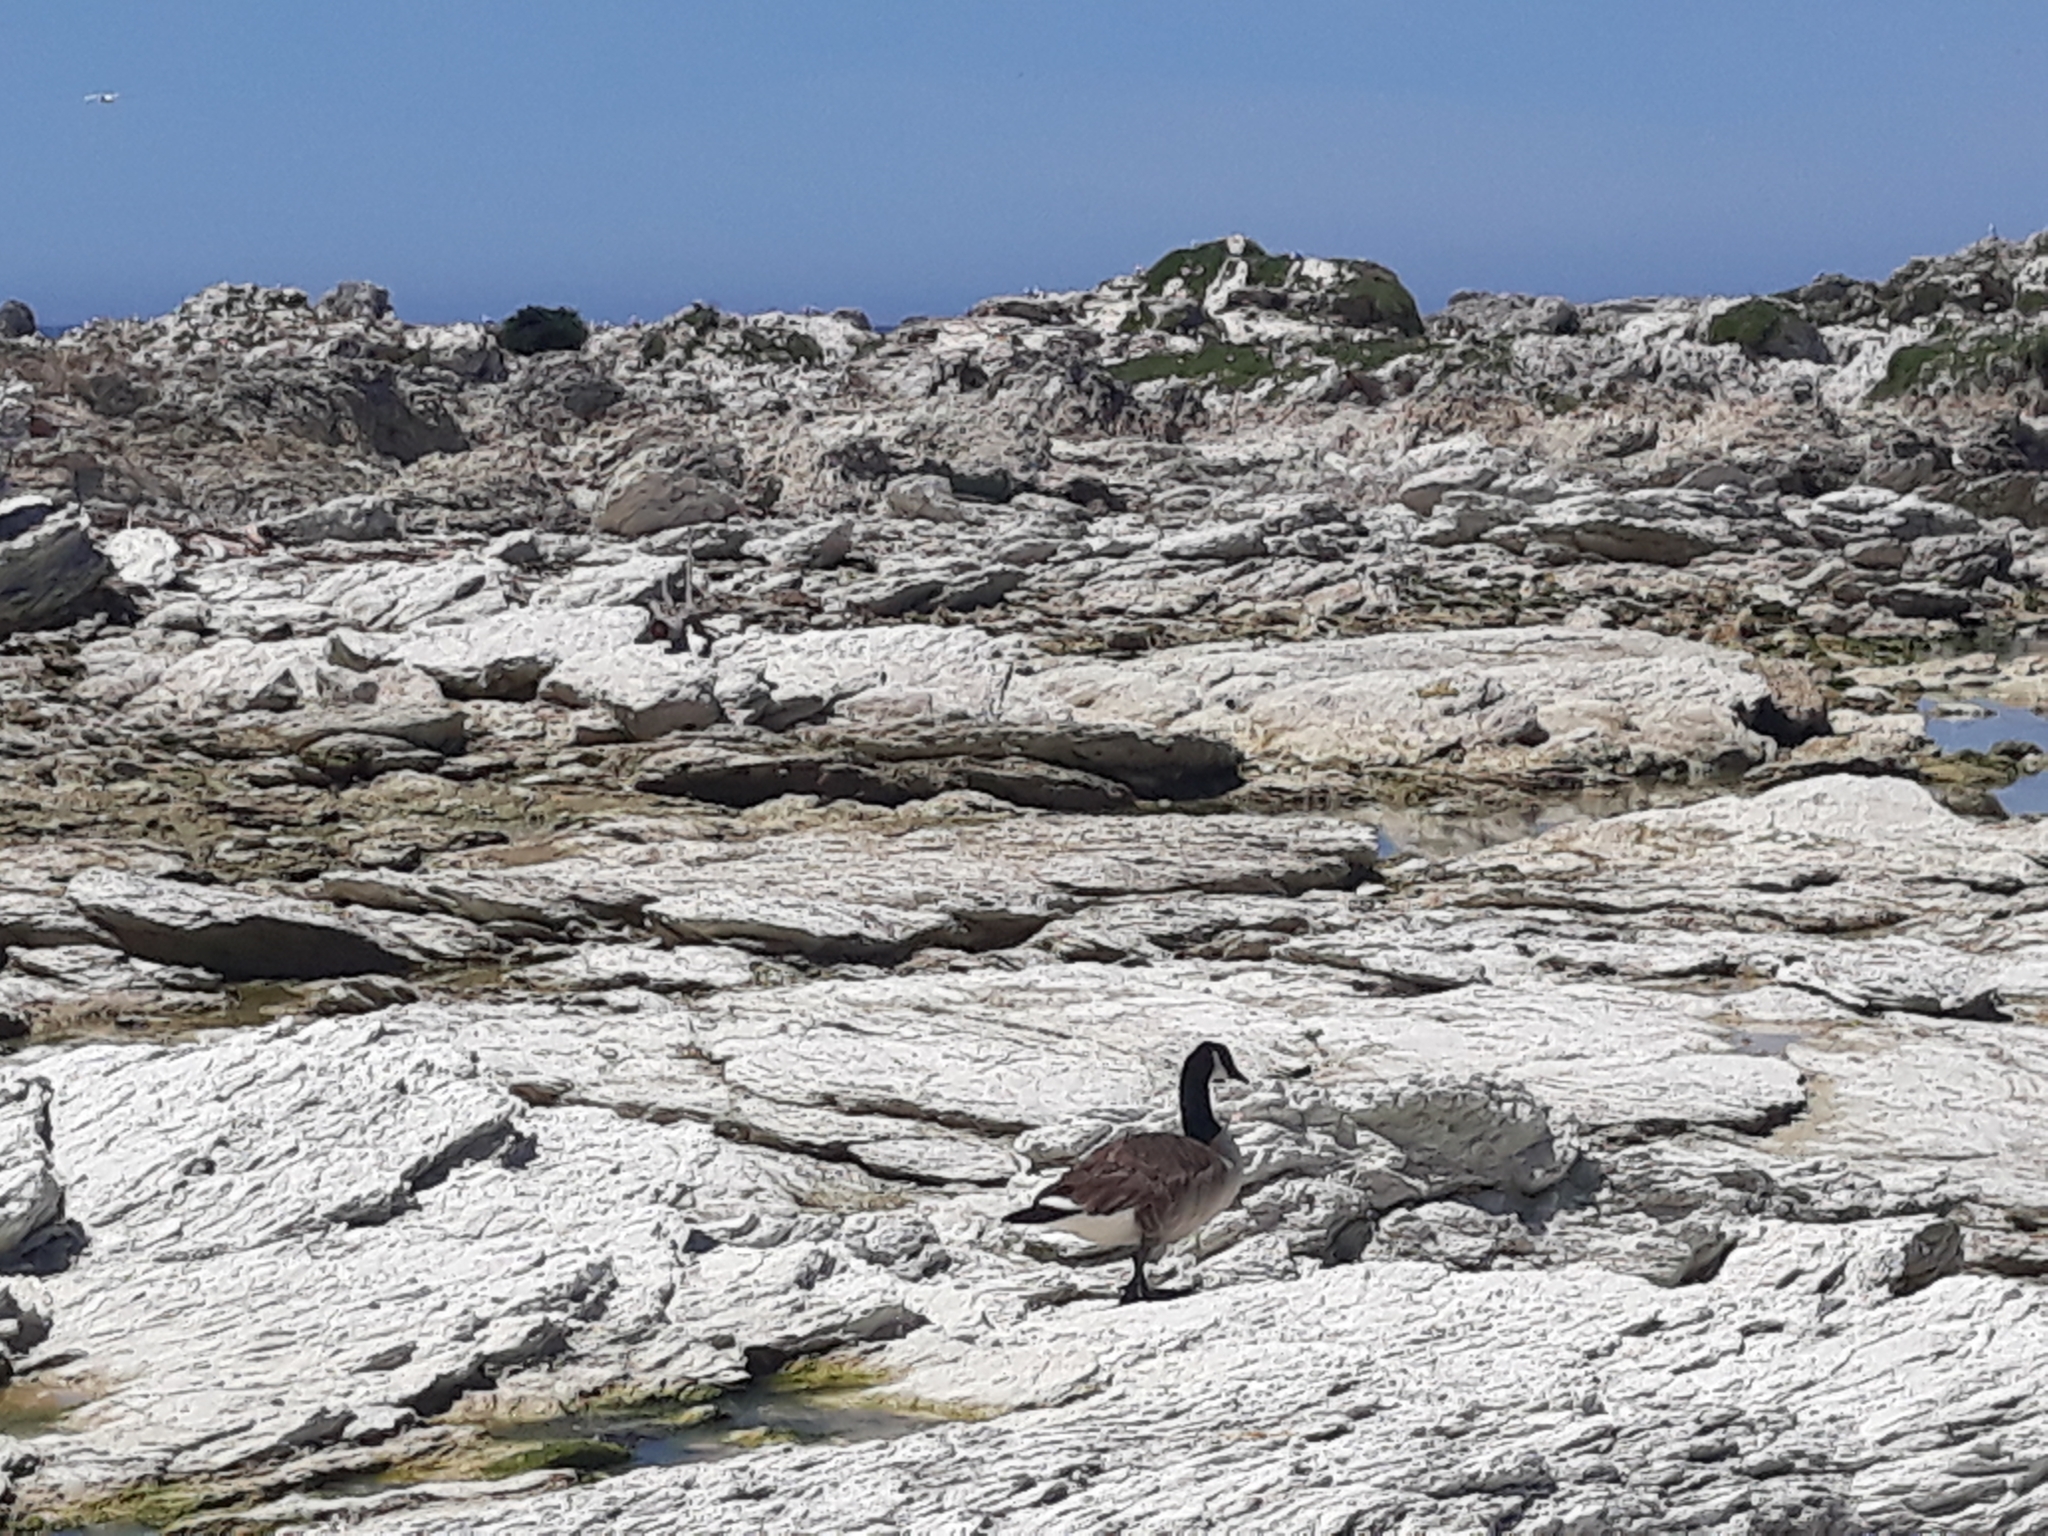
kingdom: Animalia
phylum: Chordata
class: Aves
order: Anseriformes
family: Anatidae
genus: Branta
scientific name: Branta canadensis
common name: Canada goose
